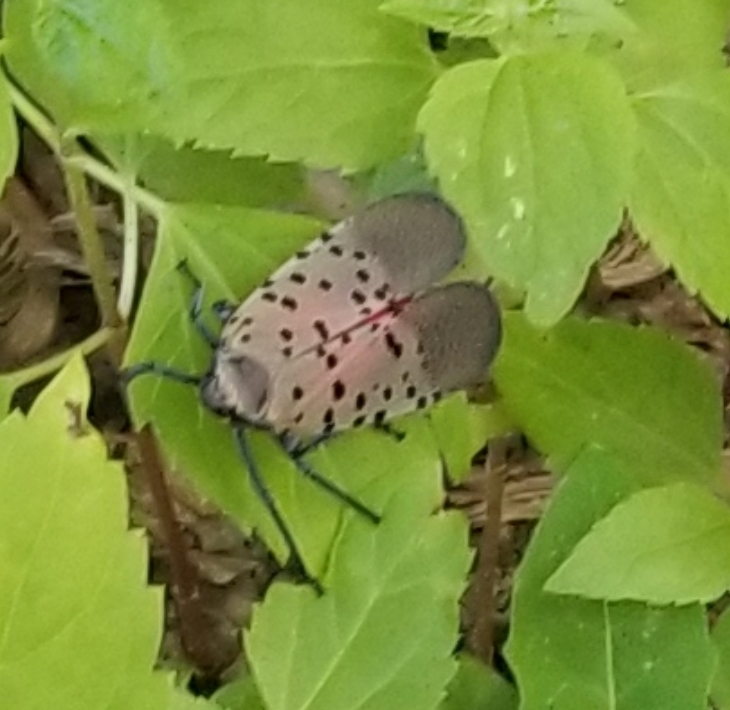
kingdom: Animalia
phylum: Arthropoda
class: Insecta
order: Hemiptera
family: Fulgoridae
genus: Lycorma
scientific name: Lycorma delicatula
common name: Spotted lanternfly
